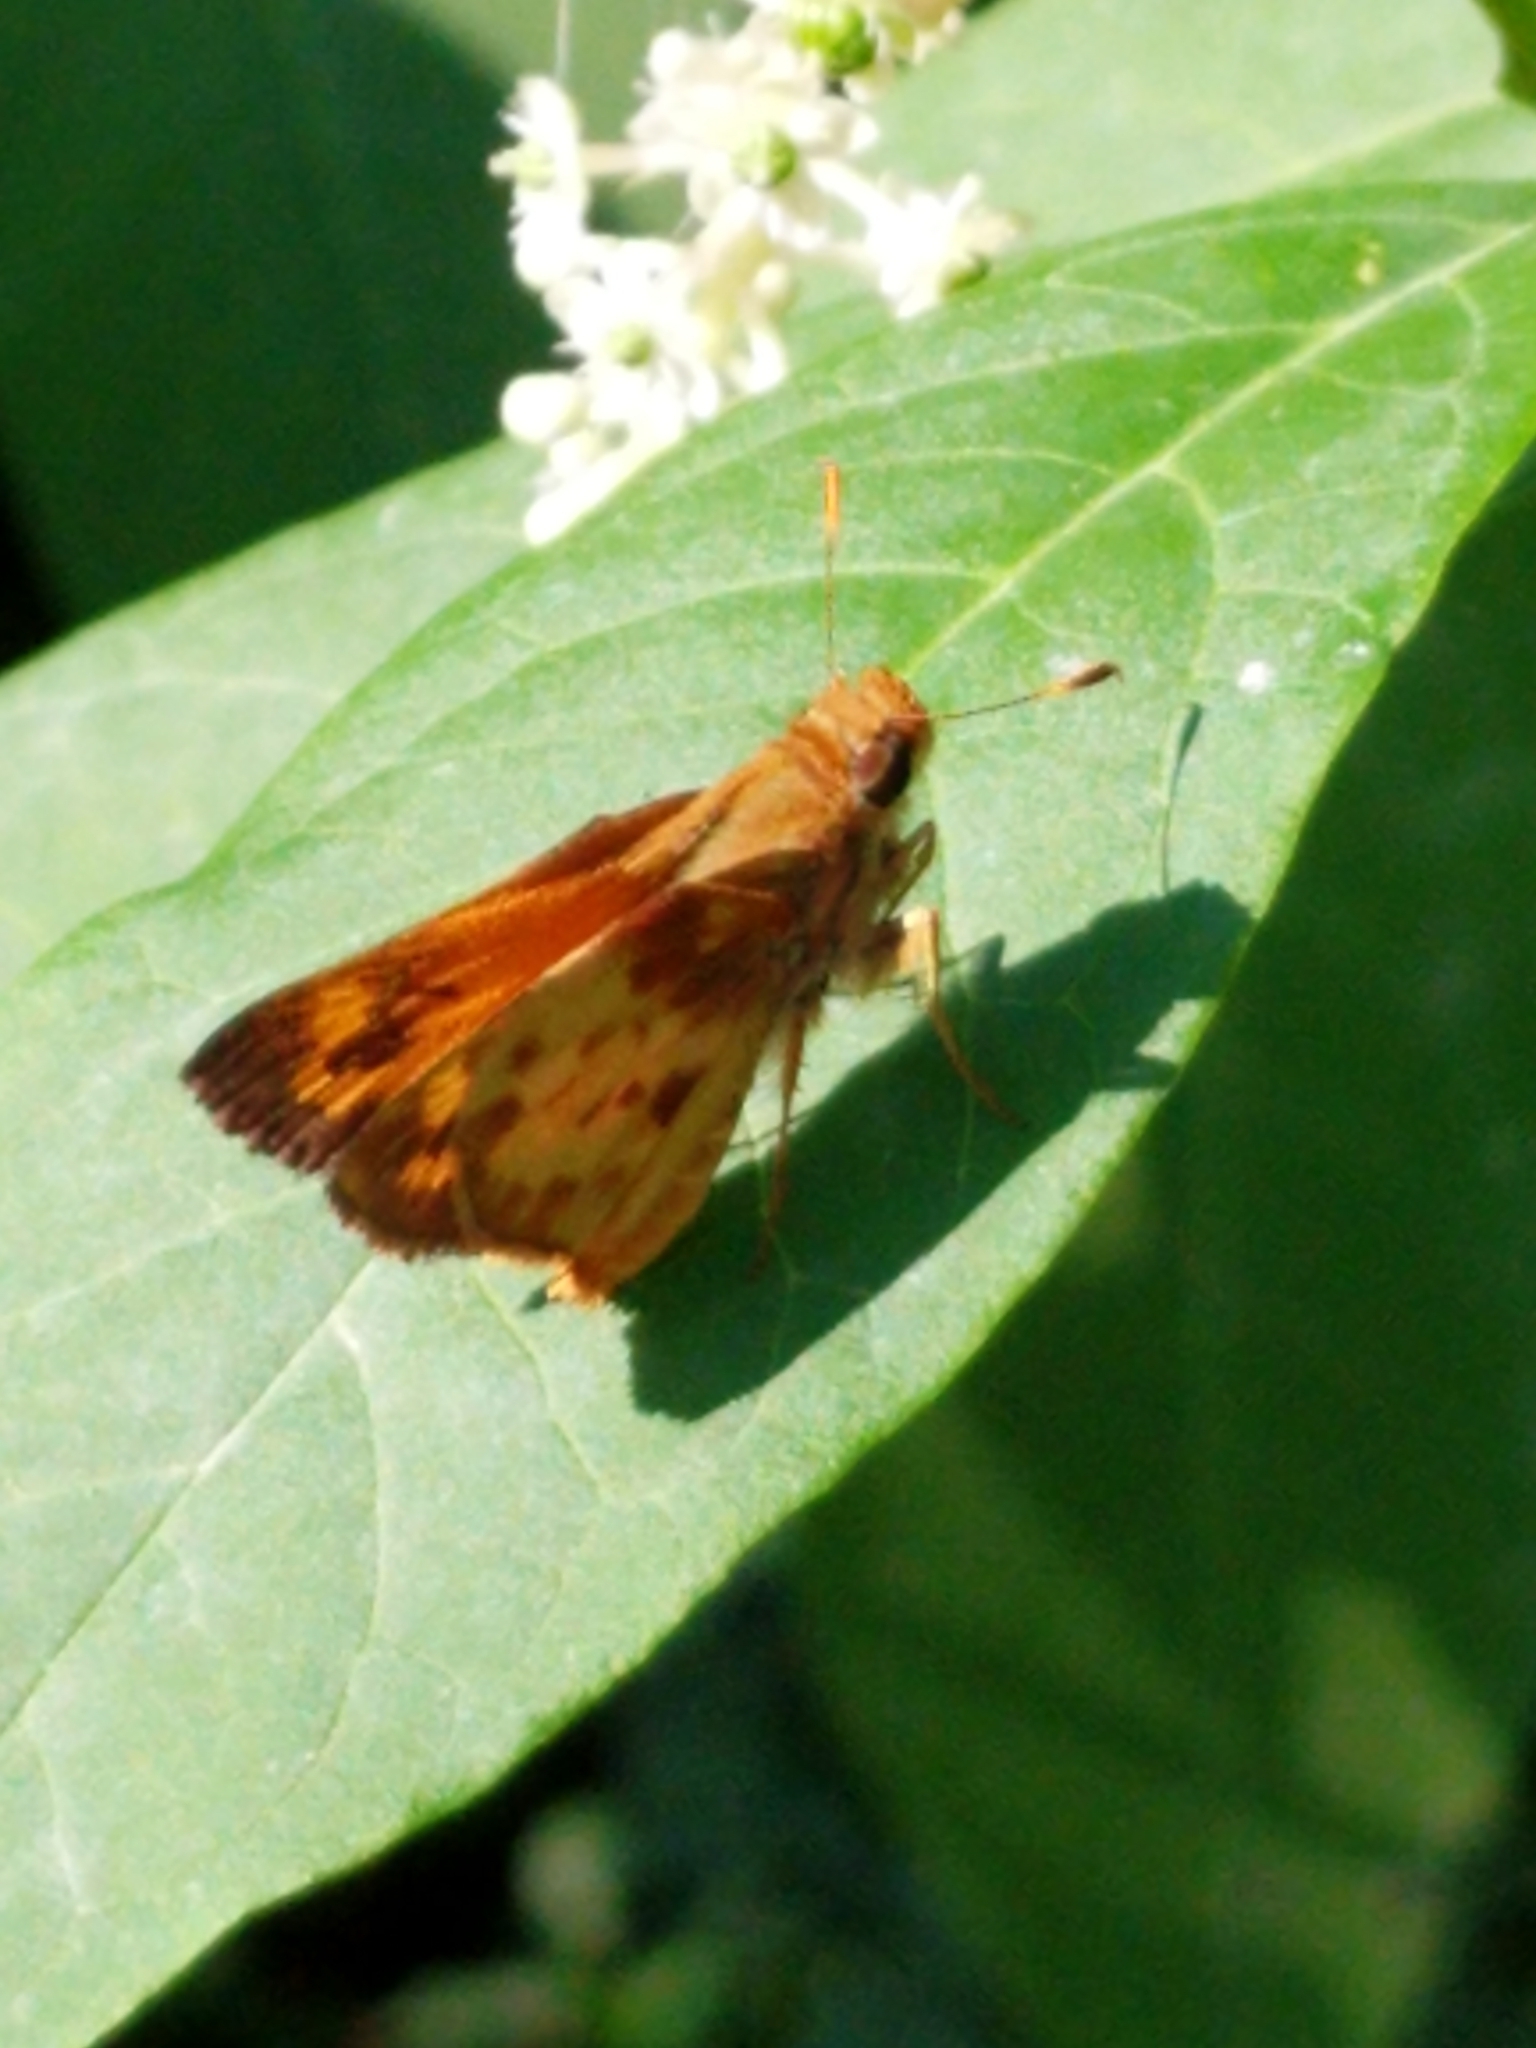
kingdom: Animalia
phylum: Arthropoda
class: Insecta
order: Lepidoptera
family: Hesperiidae
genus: Lon
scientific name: Lon zabulon
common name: Zabulon skipper
